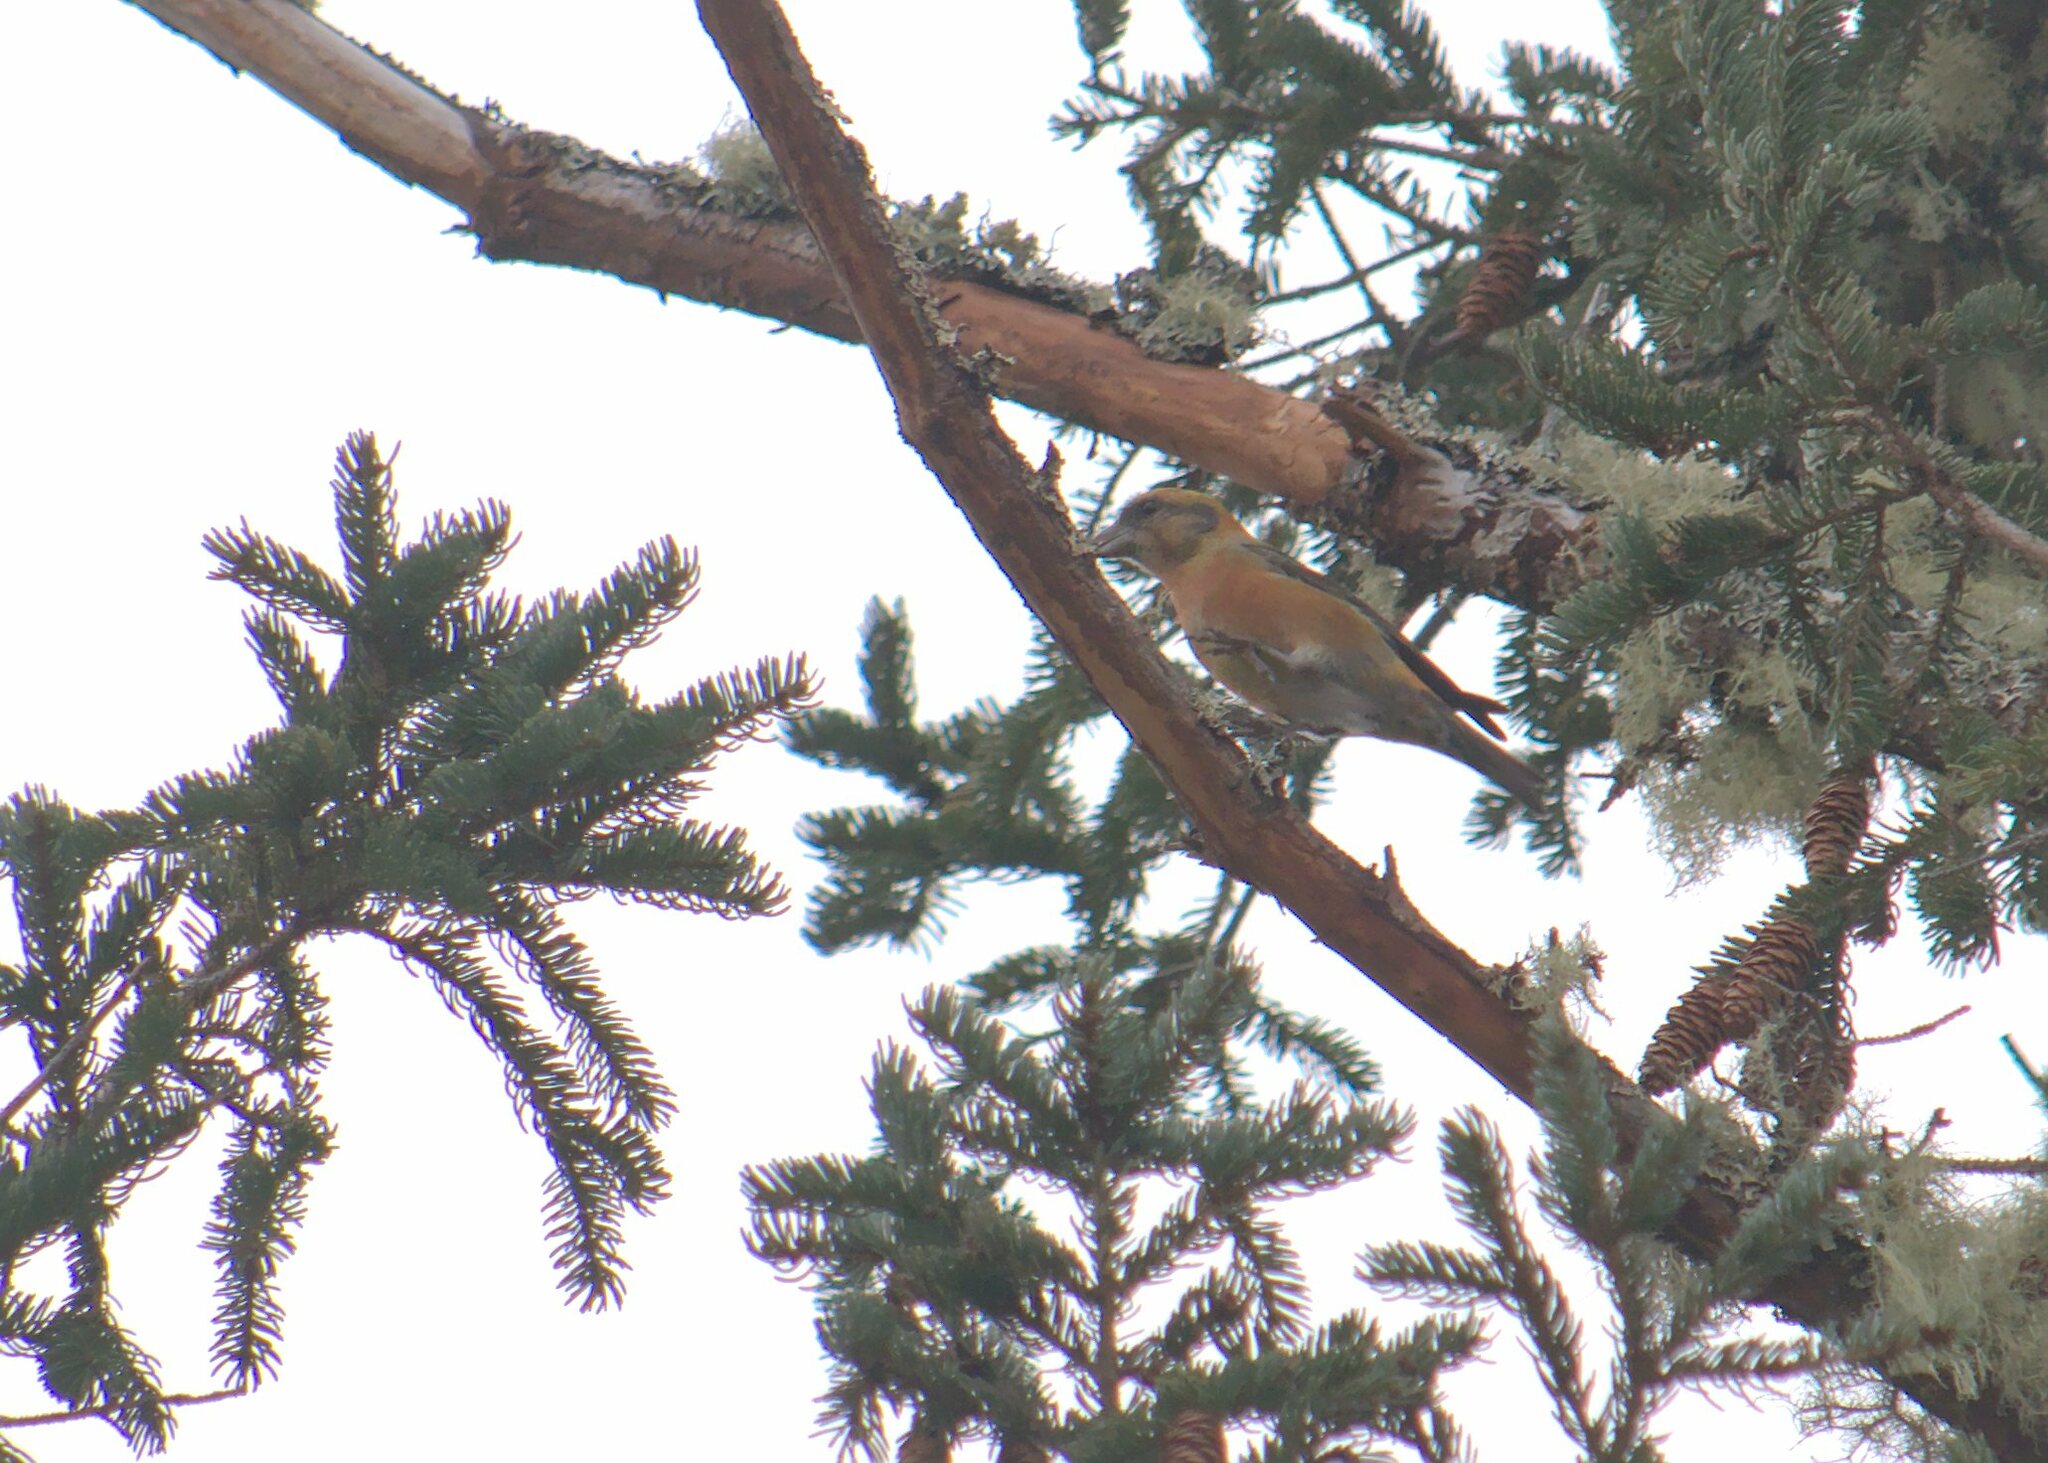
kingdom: Animalia
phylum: Chordata
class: Aves
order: Passeriformes
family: Fringillidae
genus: Loxia
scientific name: Loxia curvirostra
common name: Red crossbill
